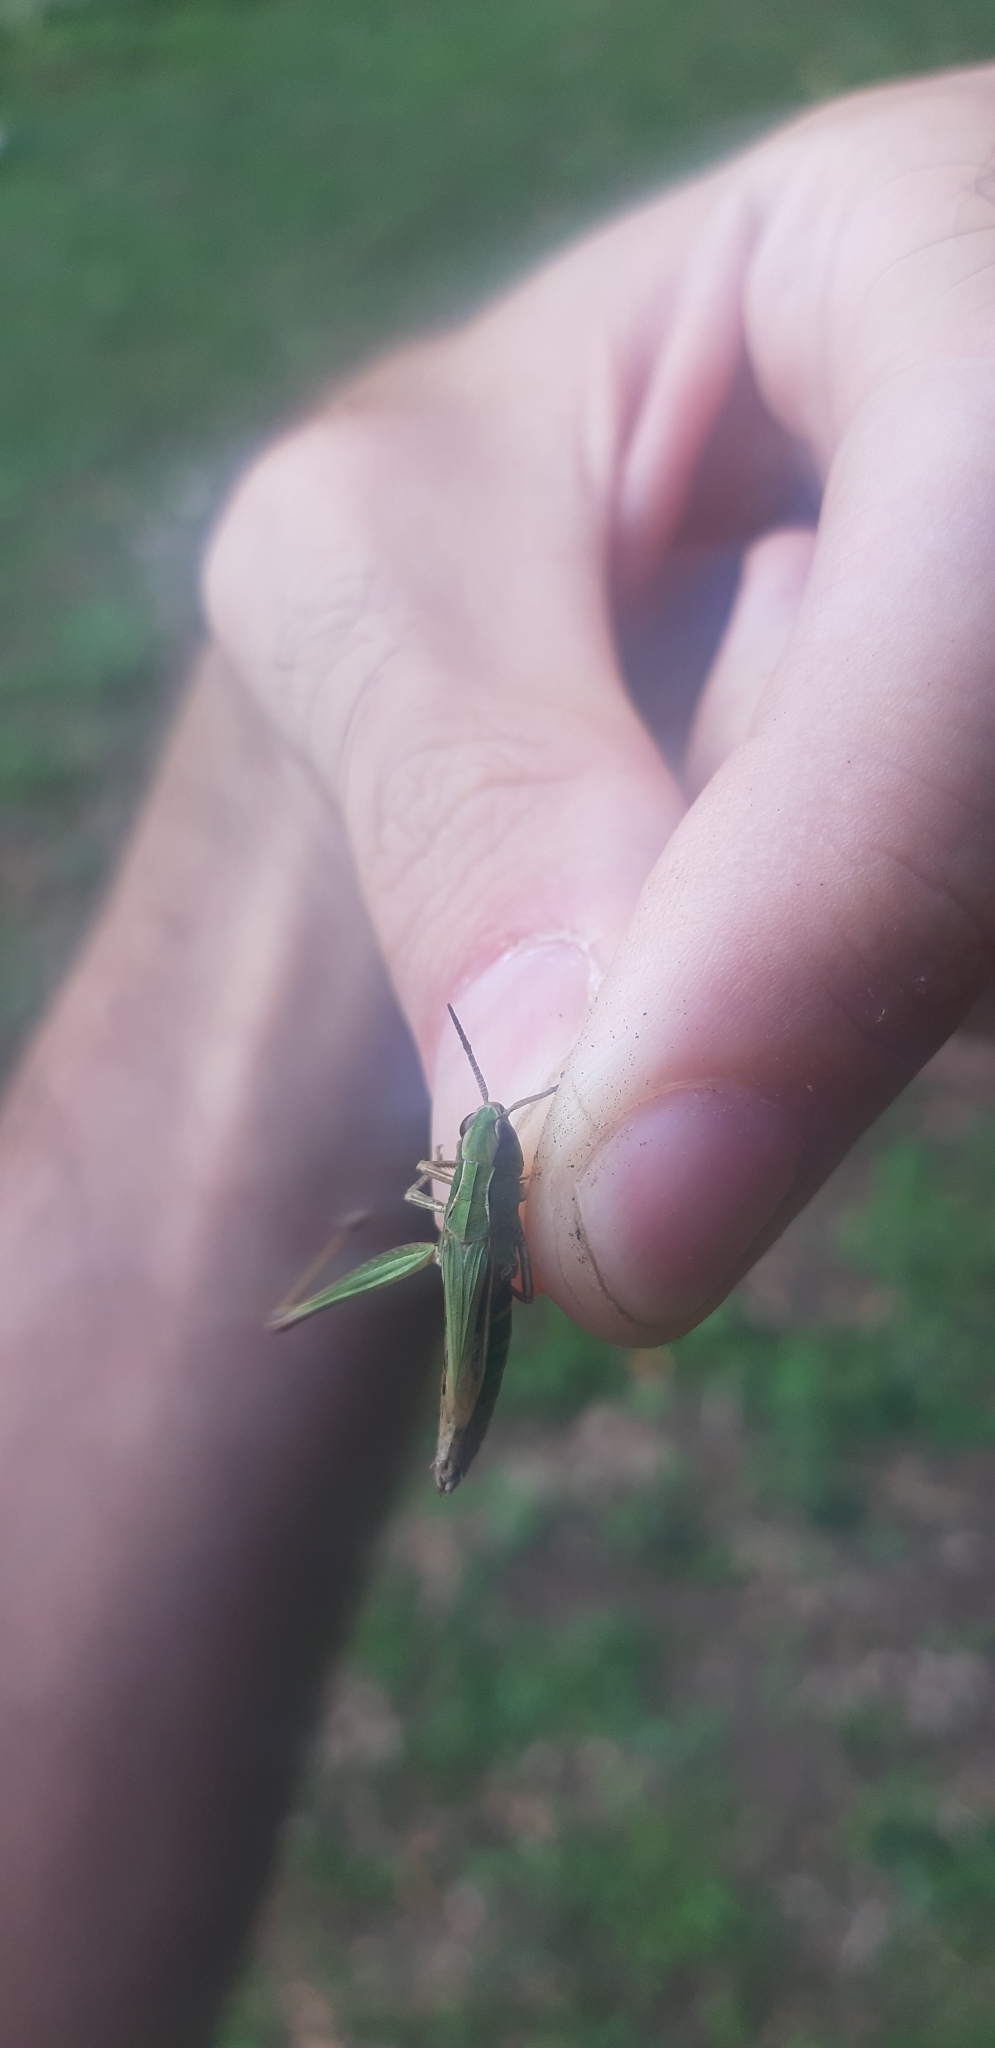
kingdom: Animalia
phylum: Arthropoda
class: Insecta
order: Orthoptera
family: Acrididae
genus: Chorthippus
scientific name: Chorthippus dorsatus
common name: Steppe grasshopper
